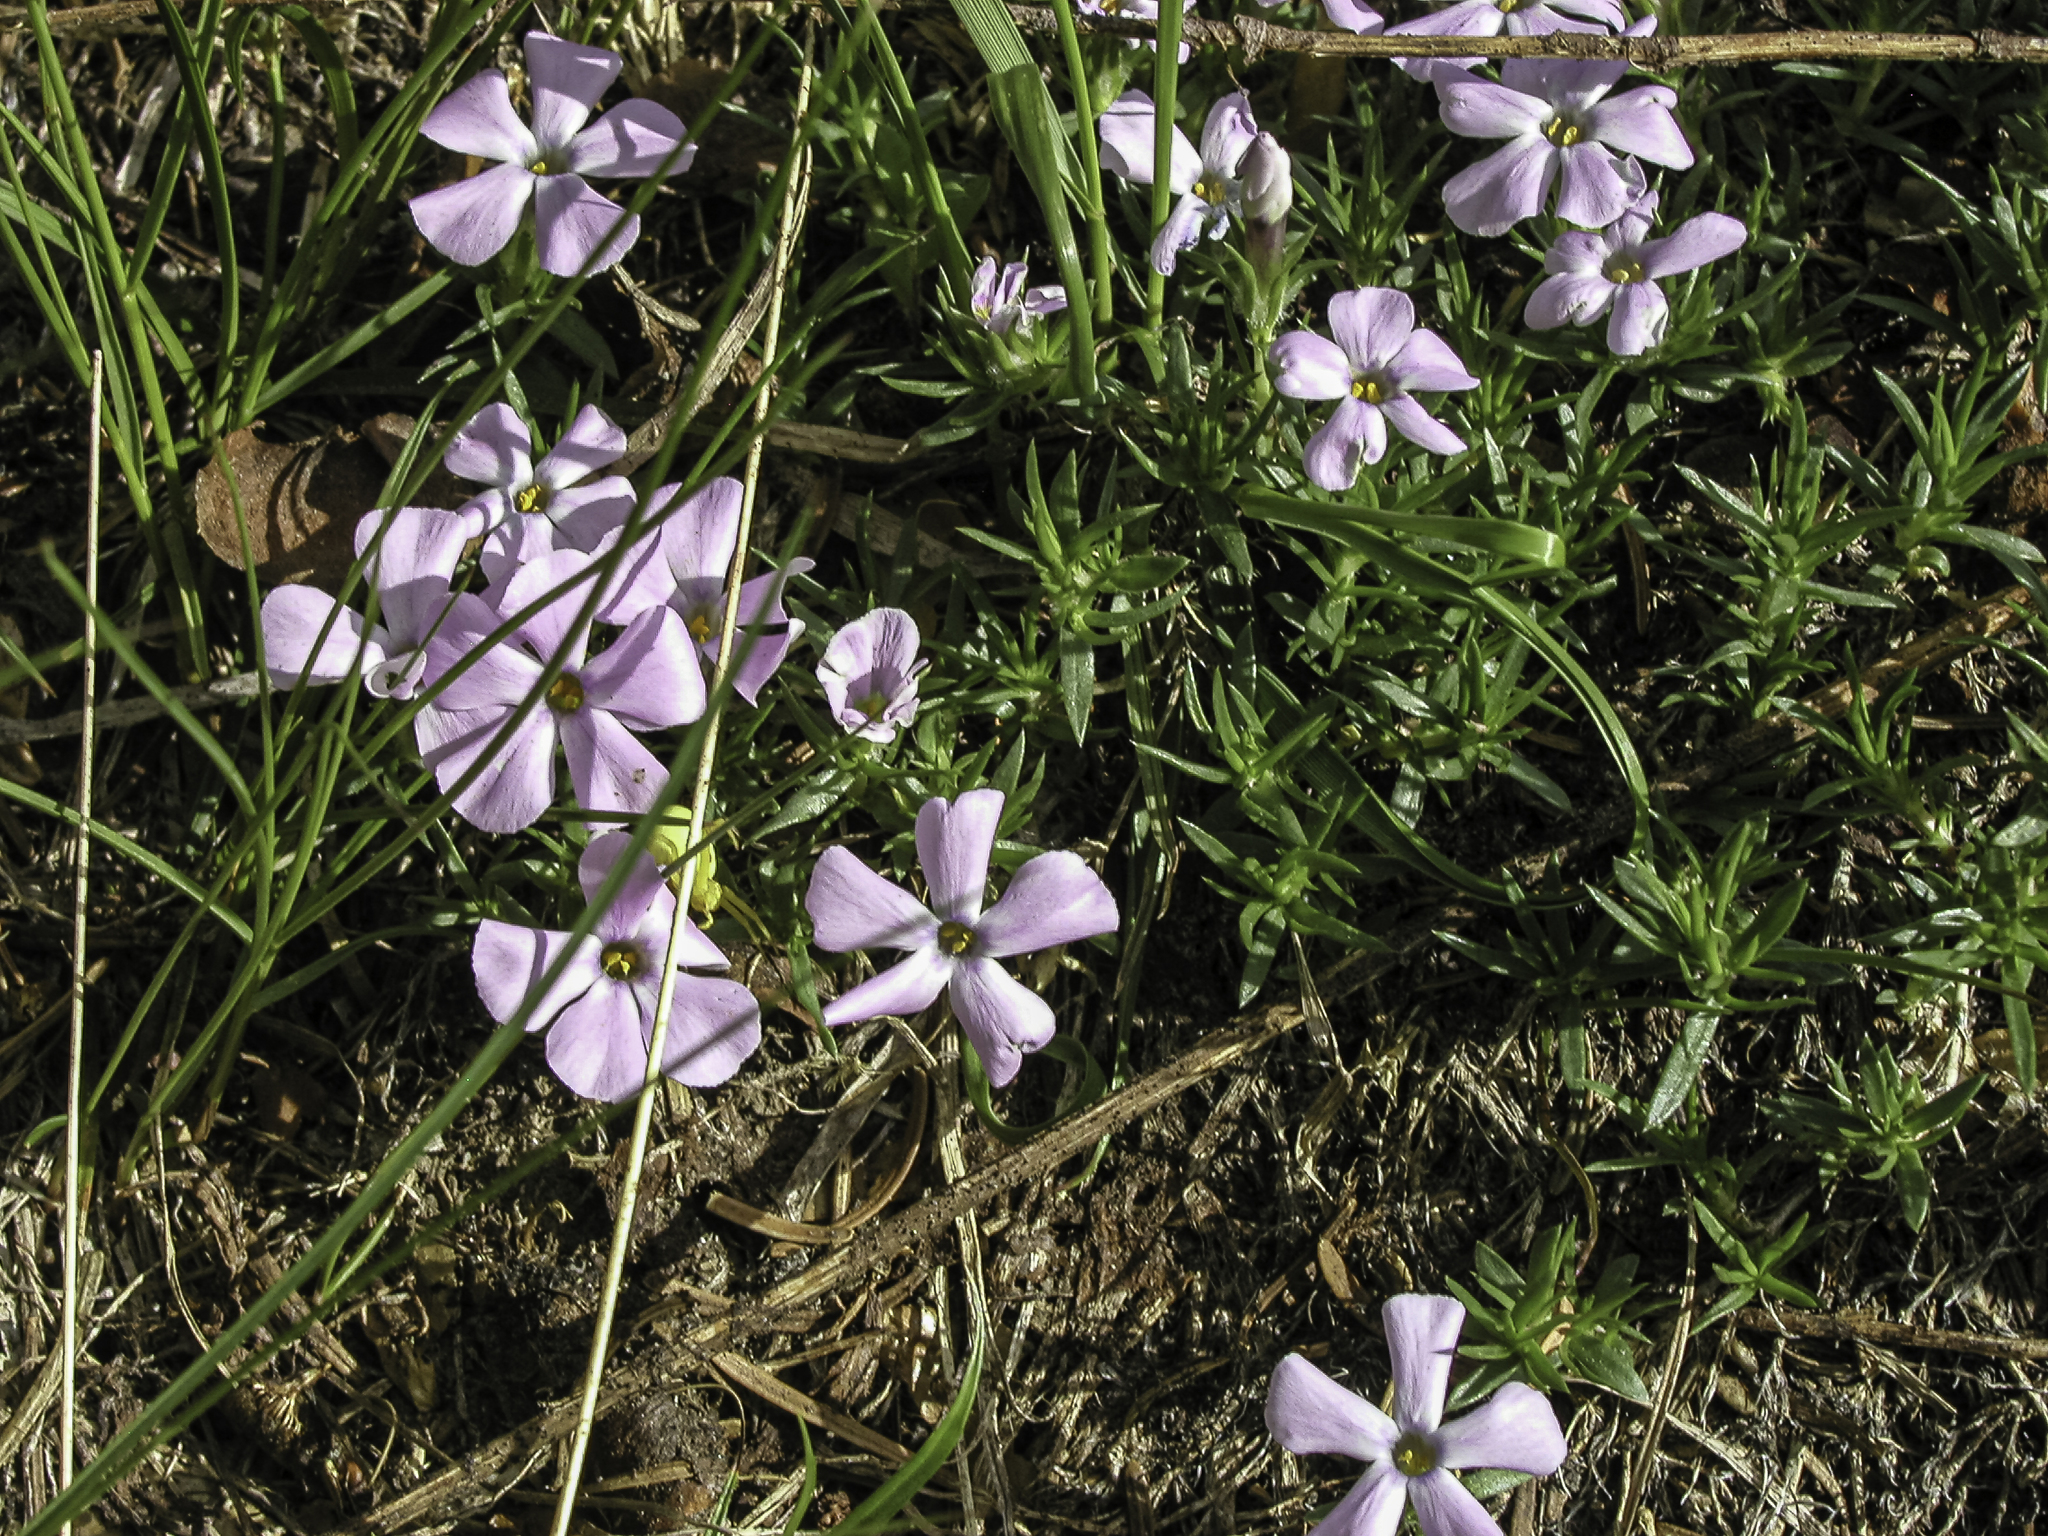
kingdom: Plantae
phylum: Tracheophyta
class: Magnoliopsida
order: Ericales
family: Polemoniaceae
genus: Phlox
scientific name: Phlox diffusa
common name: Mat phlox
